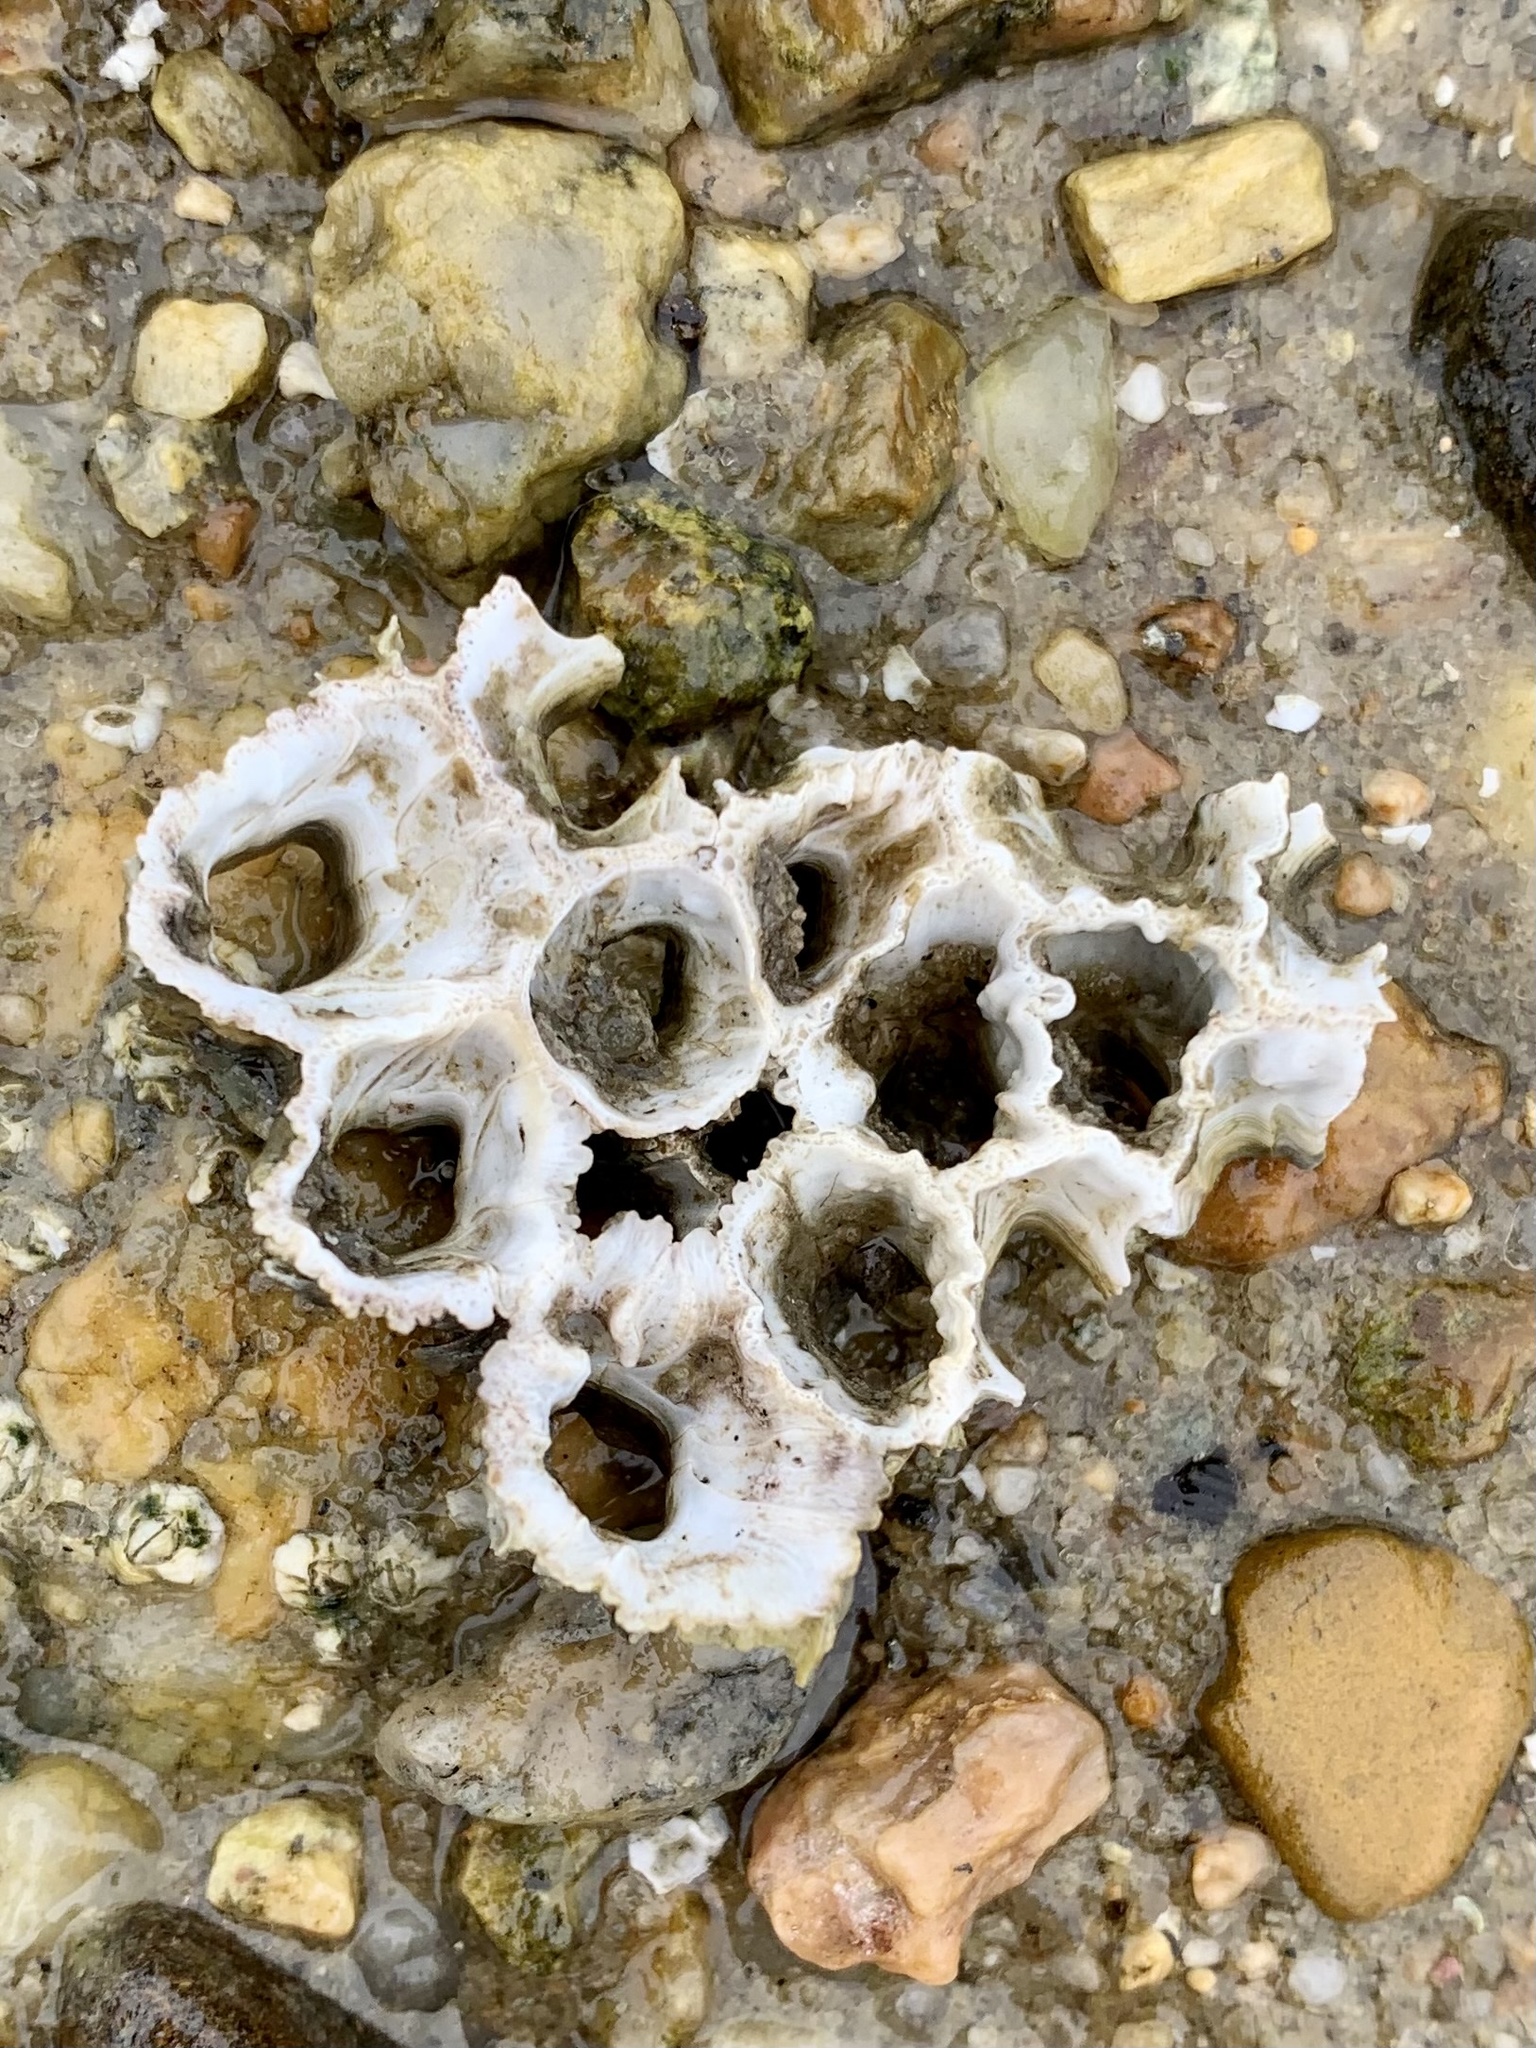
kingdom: Animalia
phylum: Arthropoda
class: Maxillopoda
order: Sessilia
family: Archaeobalanidae
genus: Semibalanus
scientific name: Semibalanus balanoides
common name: Acorn barnacle
